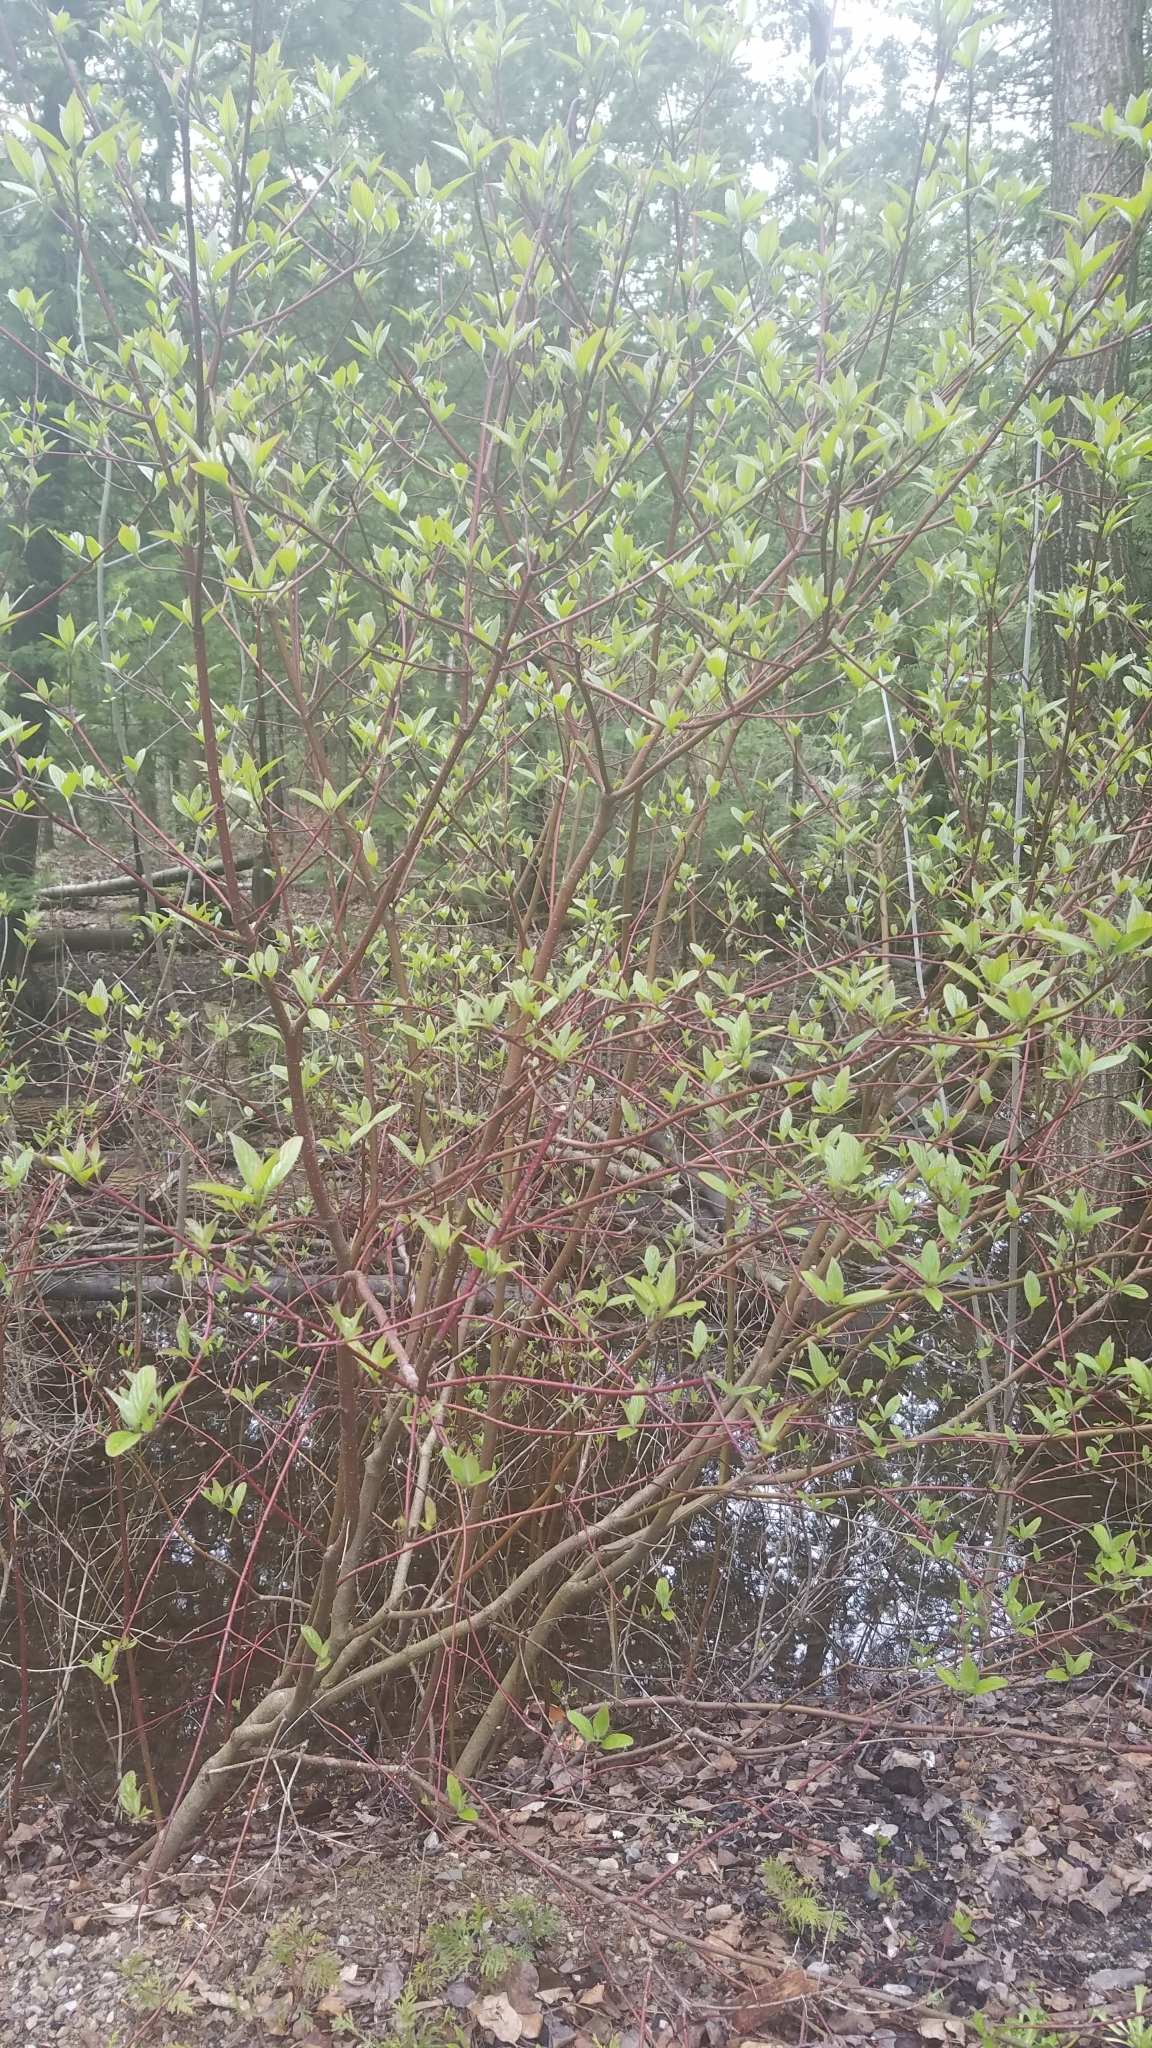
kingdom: Plantae
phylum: Tracheophyta
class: Magnoliopsida
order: Cornales
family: Cornaceae
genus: Cornus
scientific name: Cornus sericea
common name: Red-osier dogwood
